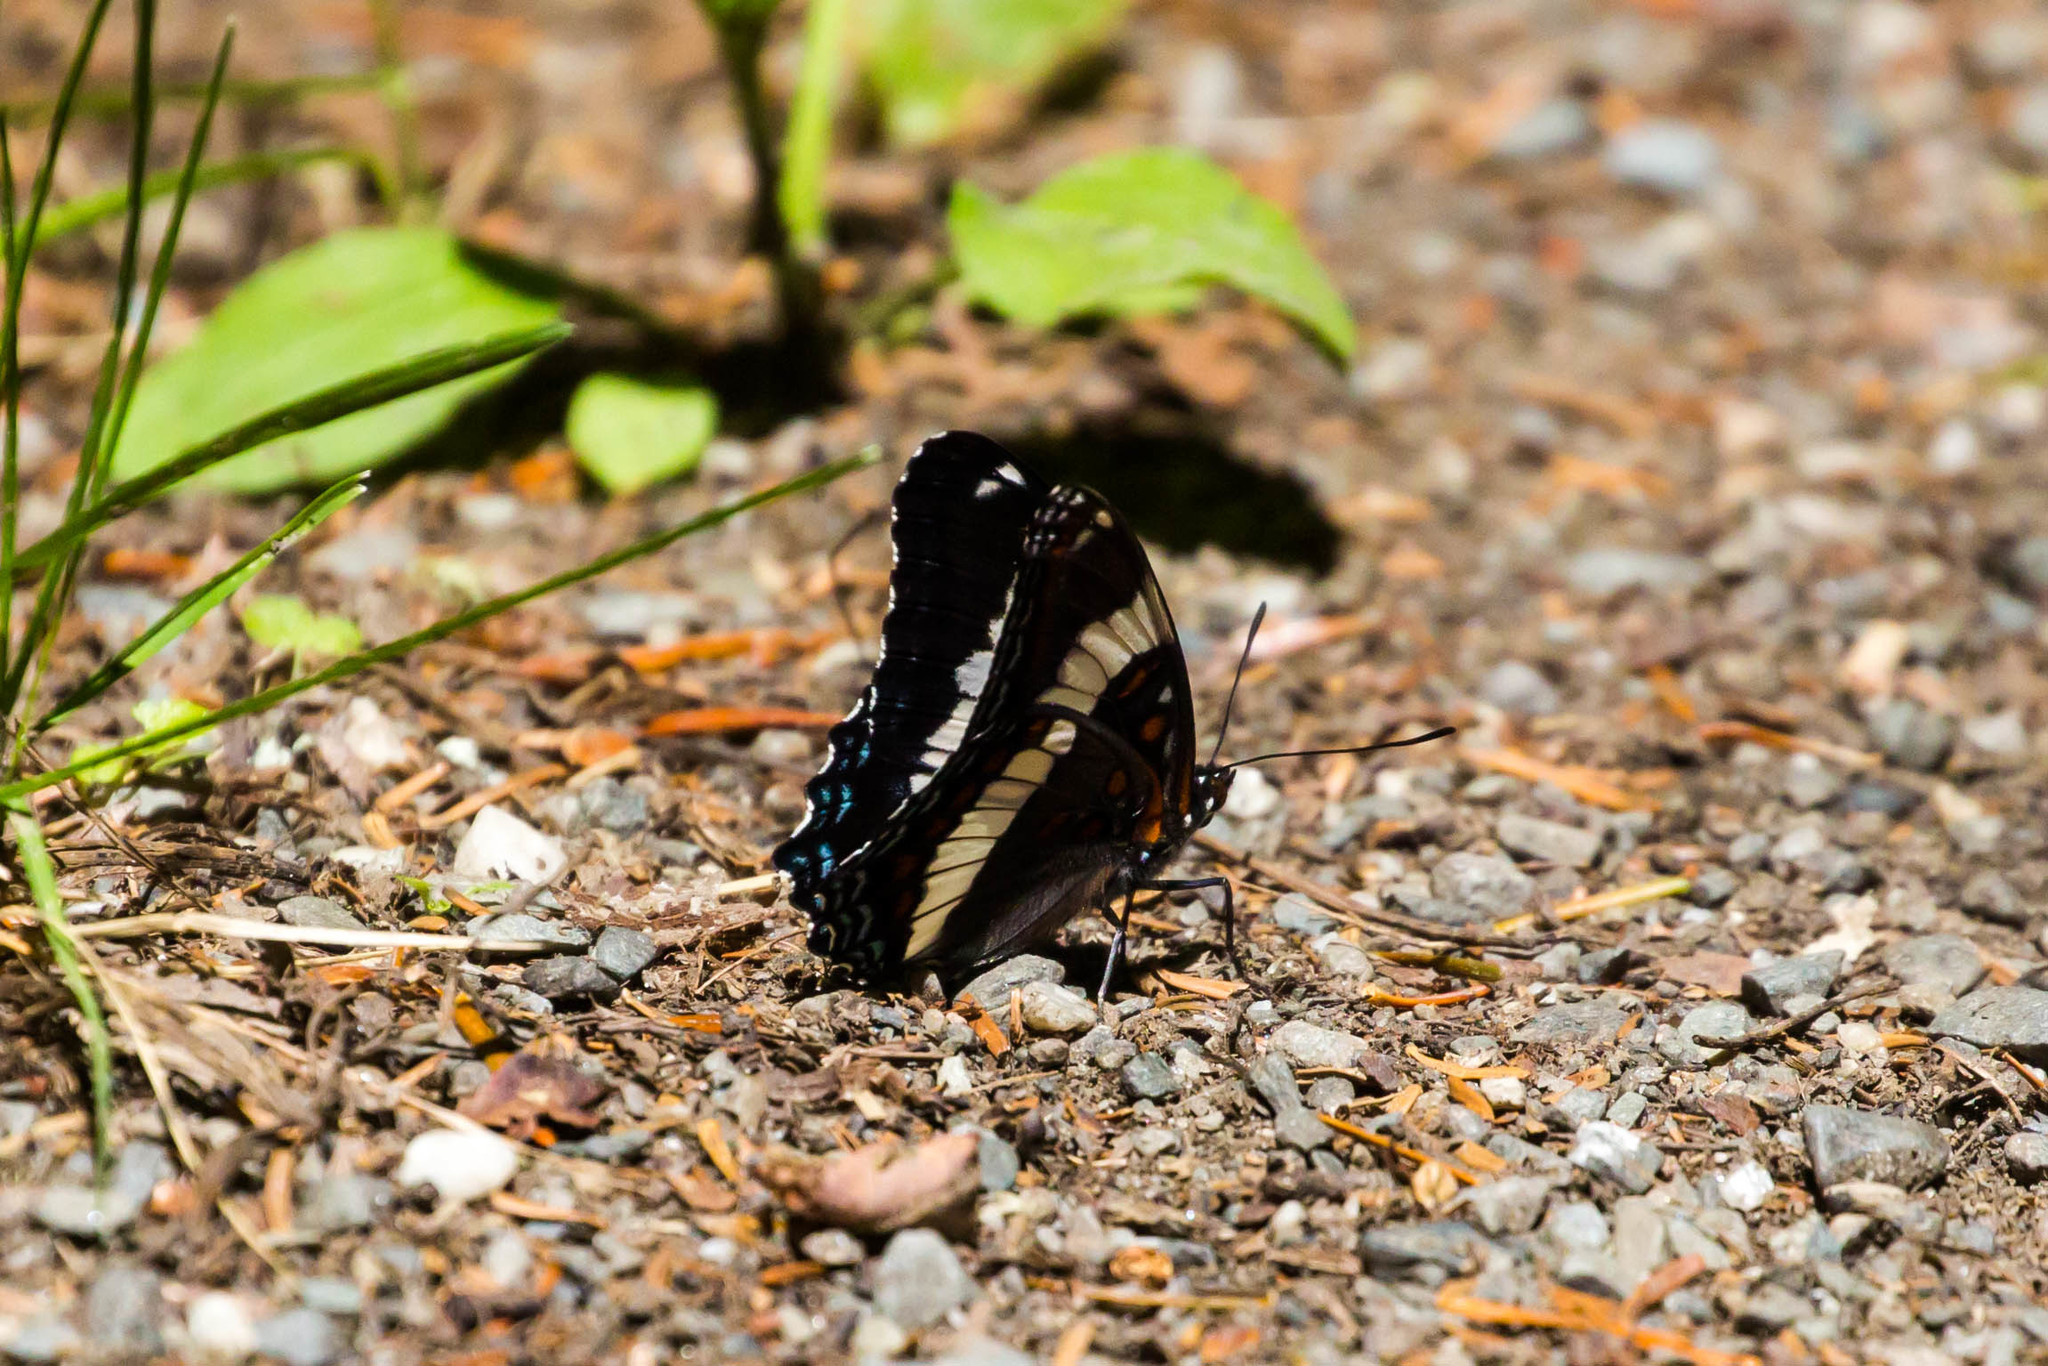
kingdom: Animalia
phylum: Arthropoda
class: Insecta
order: Lepidoptera
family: Nymphalidae
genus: Limenitis
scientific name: Limenitis arthemis
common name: Red-spotted admiral
